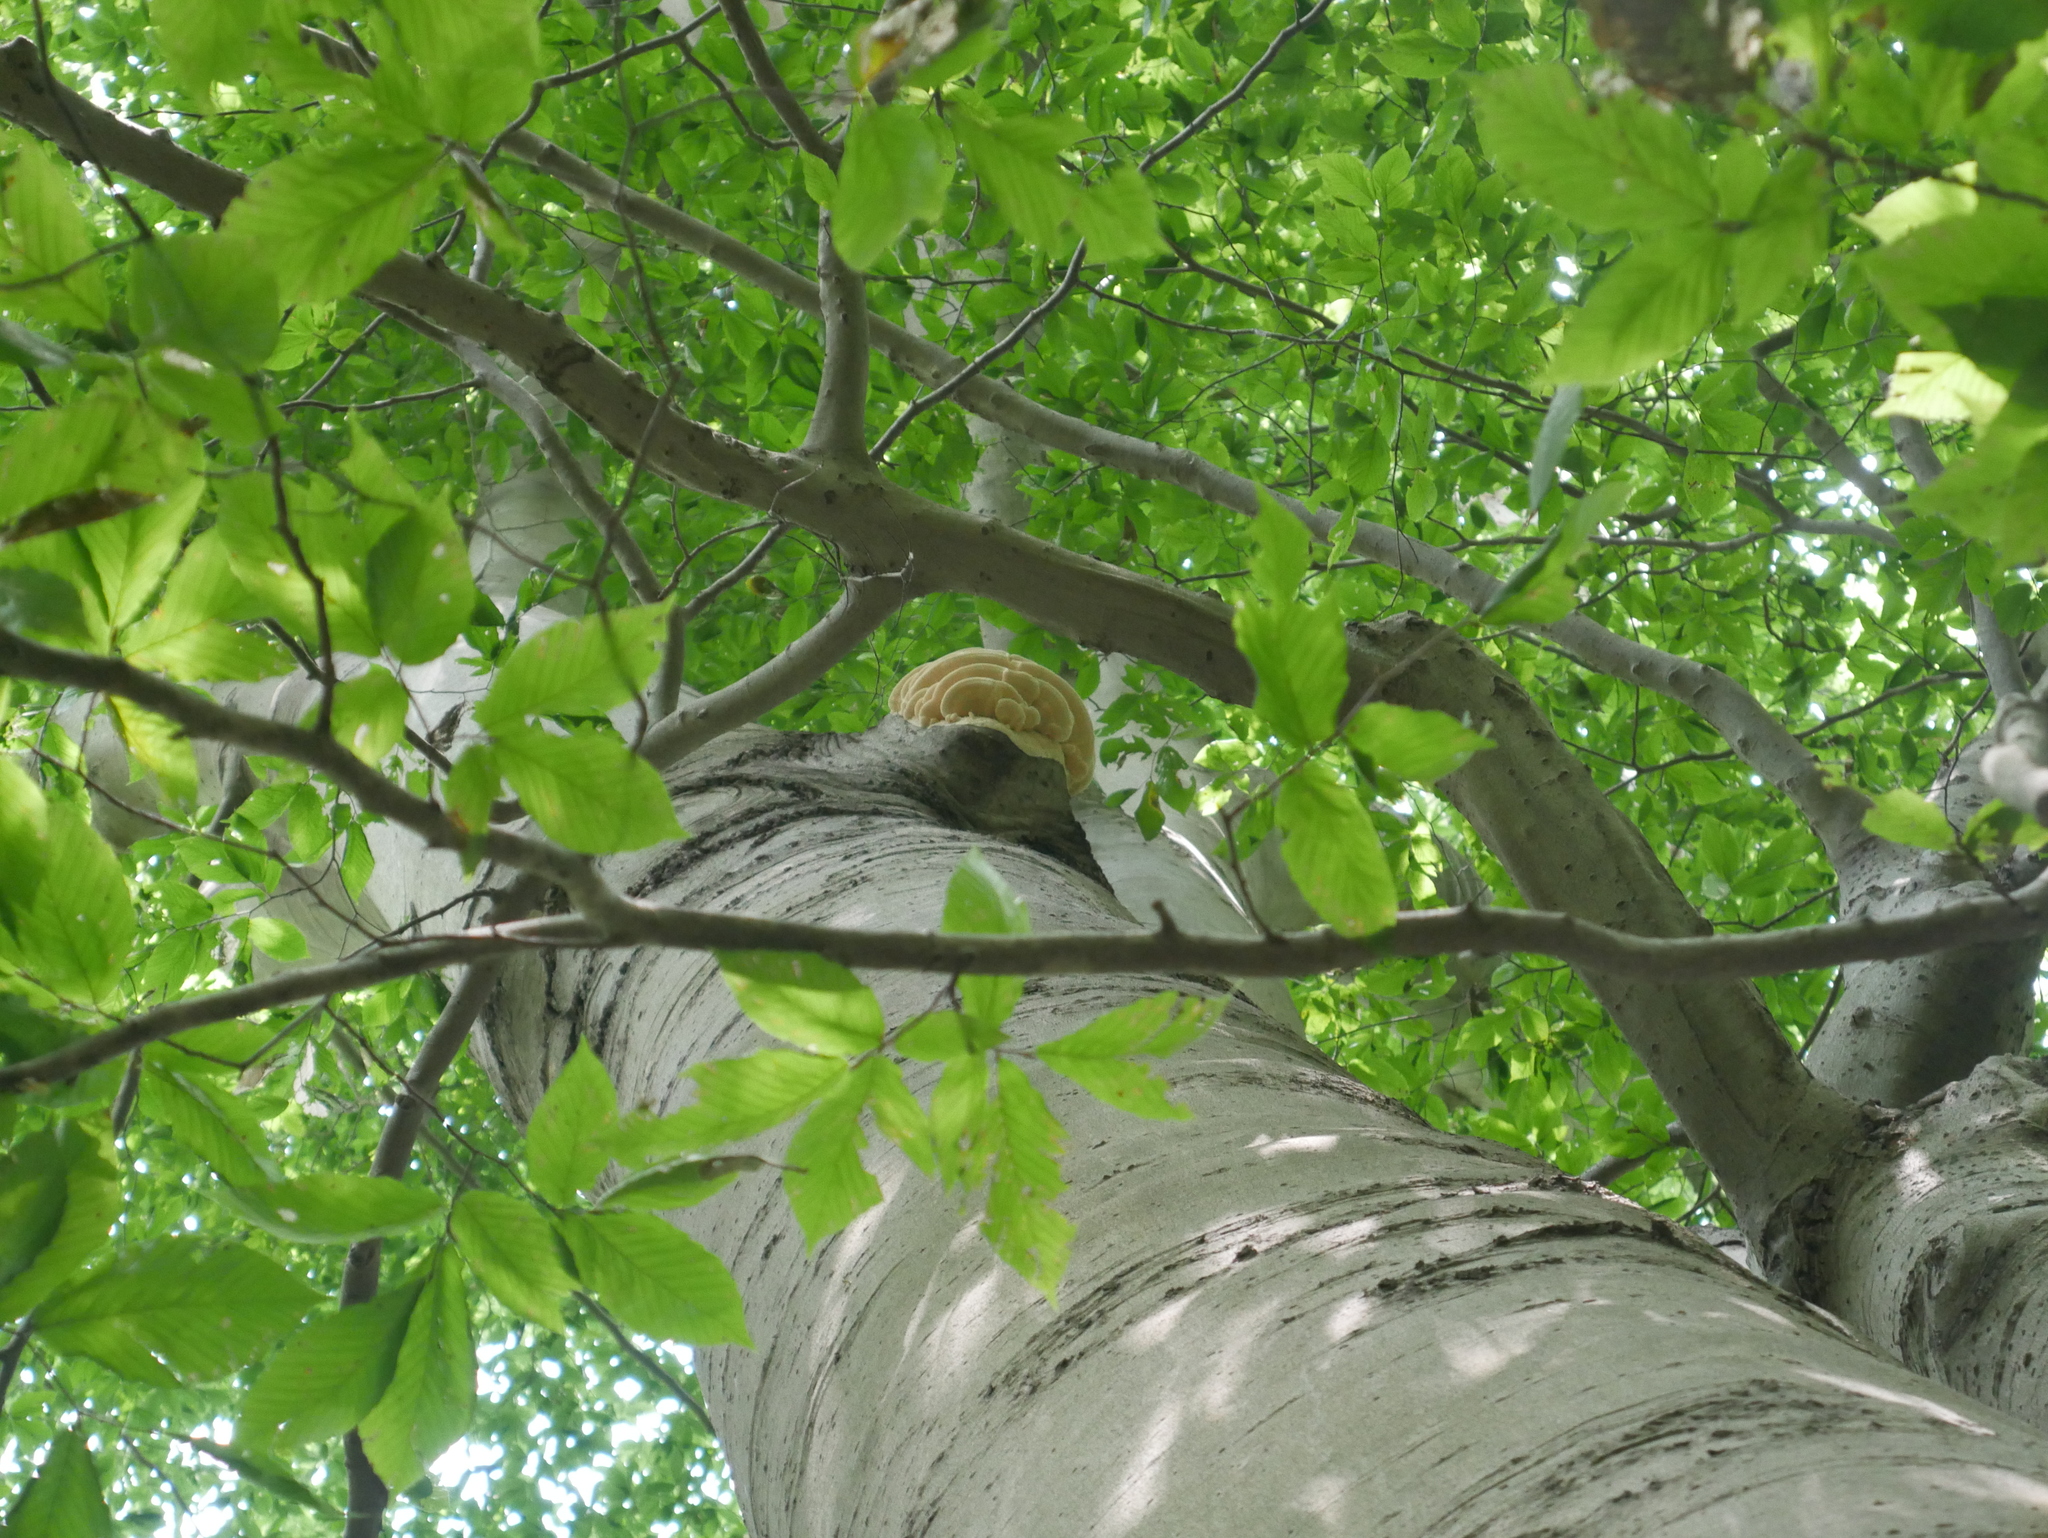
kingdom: Fungi
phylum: Basidiomycota
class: Agaricomycetes
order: Polyporales
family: Meruliaceae
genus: Climacodon
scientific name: Climacodon septentrionalis
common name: Northern tooth
